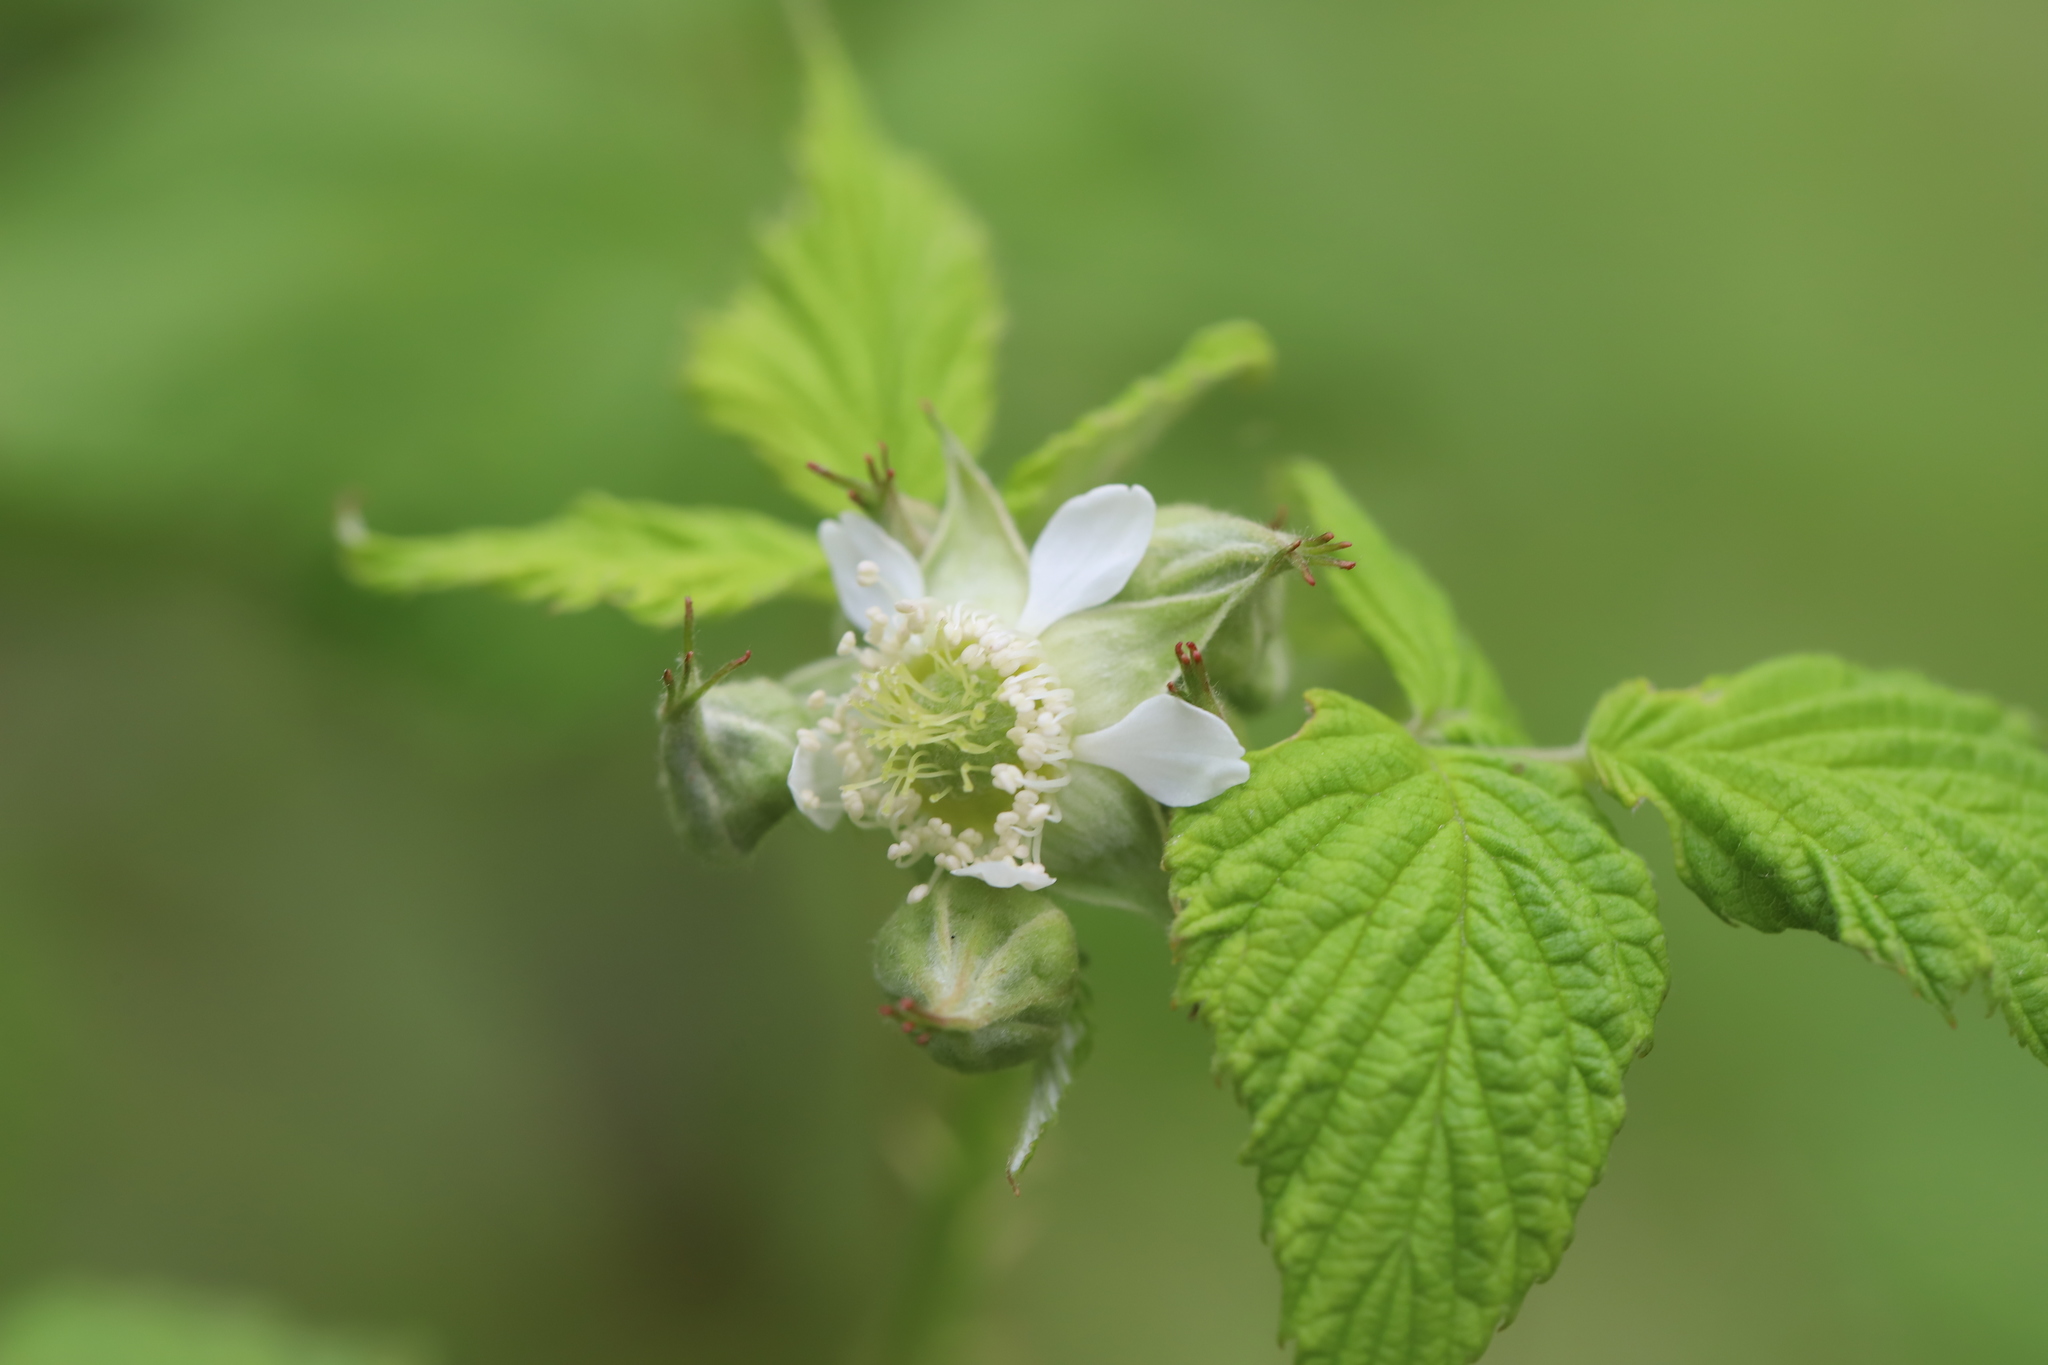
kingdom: Plantae
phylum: Tracheophyta
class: Magnoliopsida
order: Rosales
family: Rosaceae
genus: Rubus
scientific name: Rubus occidentalis
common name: Black raspberry
